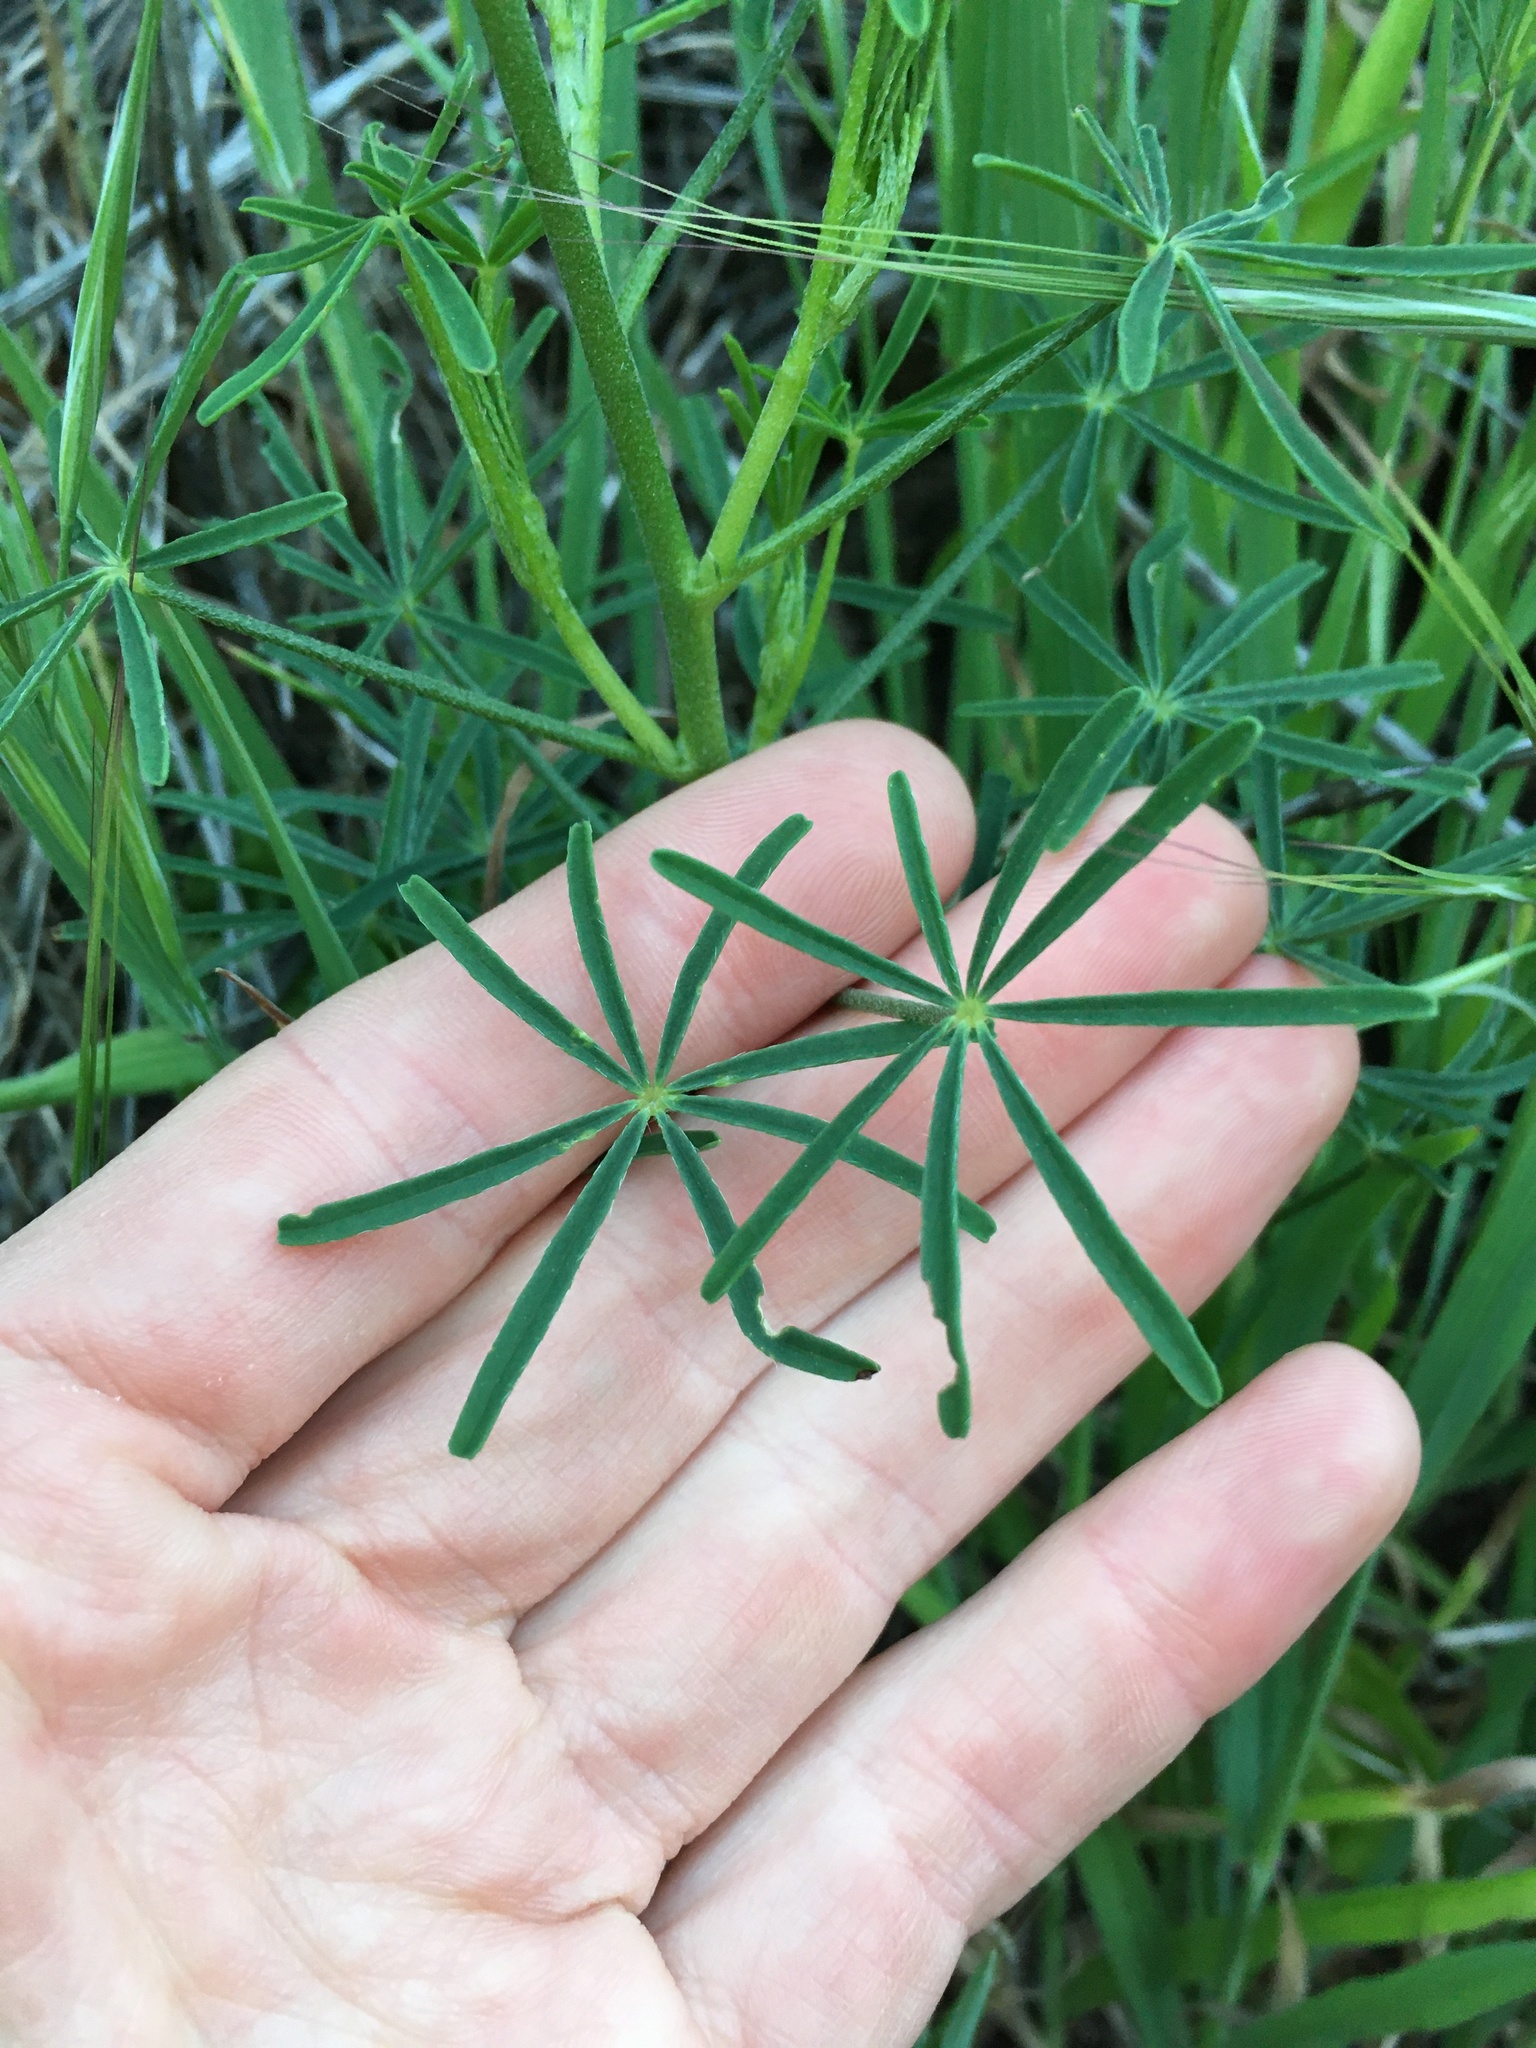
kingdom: Plantae
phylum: Tracheophyta
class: Magnoliopsida
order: Fabales
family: Fabaceae
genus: Lupinus
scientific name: Lupinus truncatus
